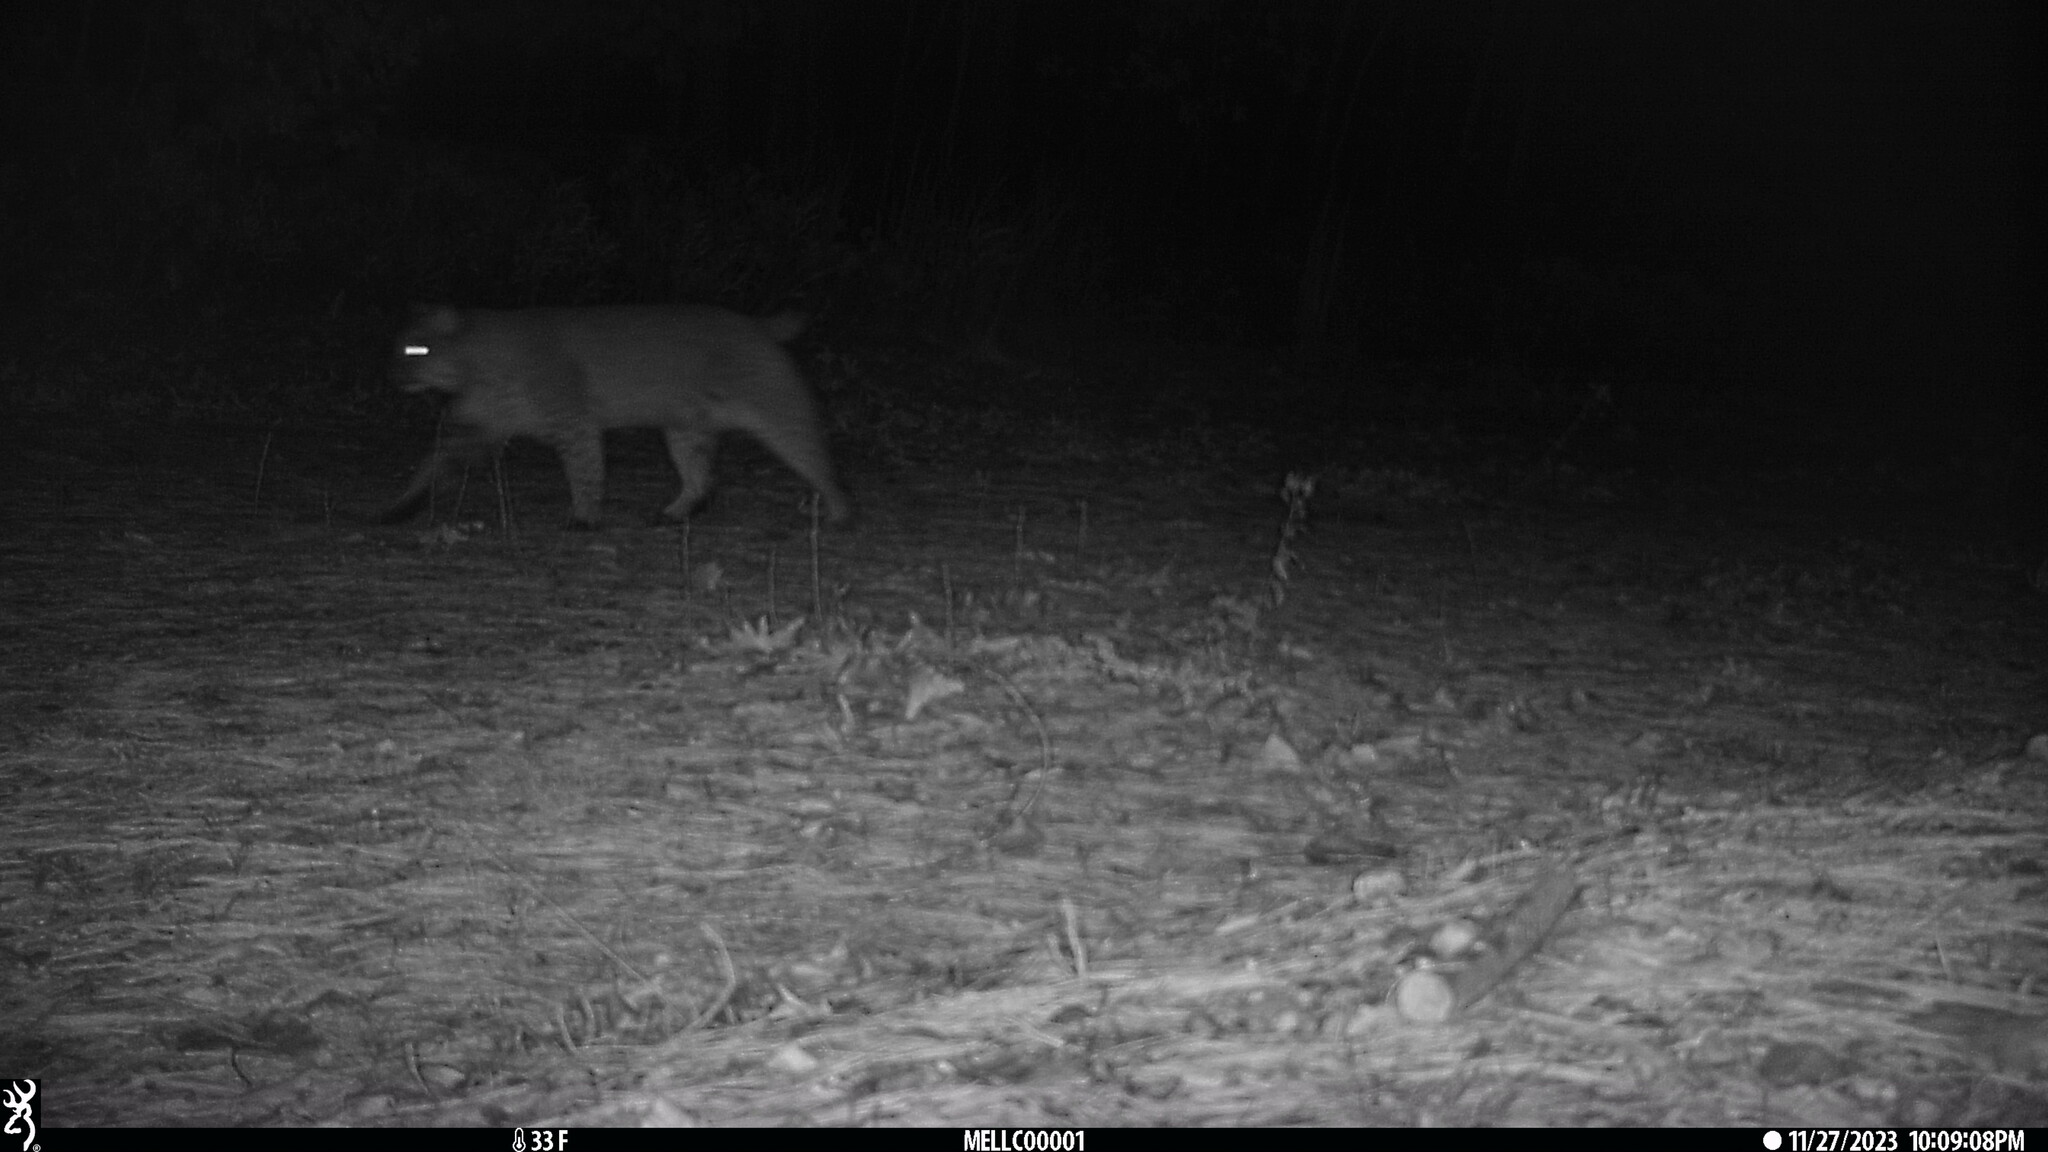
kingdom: Animalia
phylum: Chordata
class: Mammalia
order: Carnivora
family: Felidae
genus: Lynx
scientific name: Lynx rufus
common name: Bobcat
